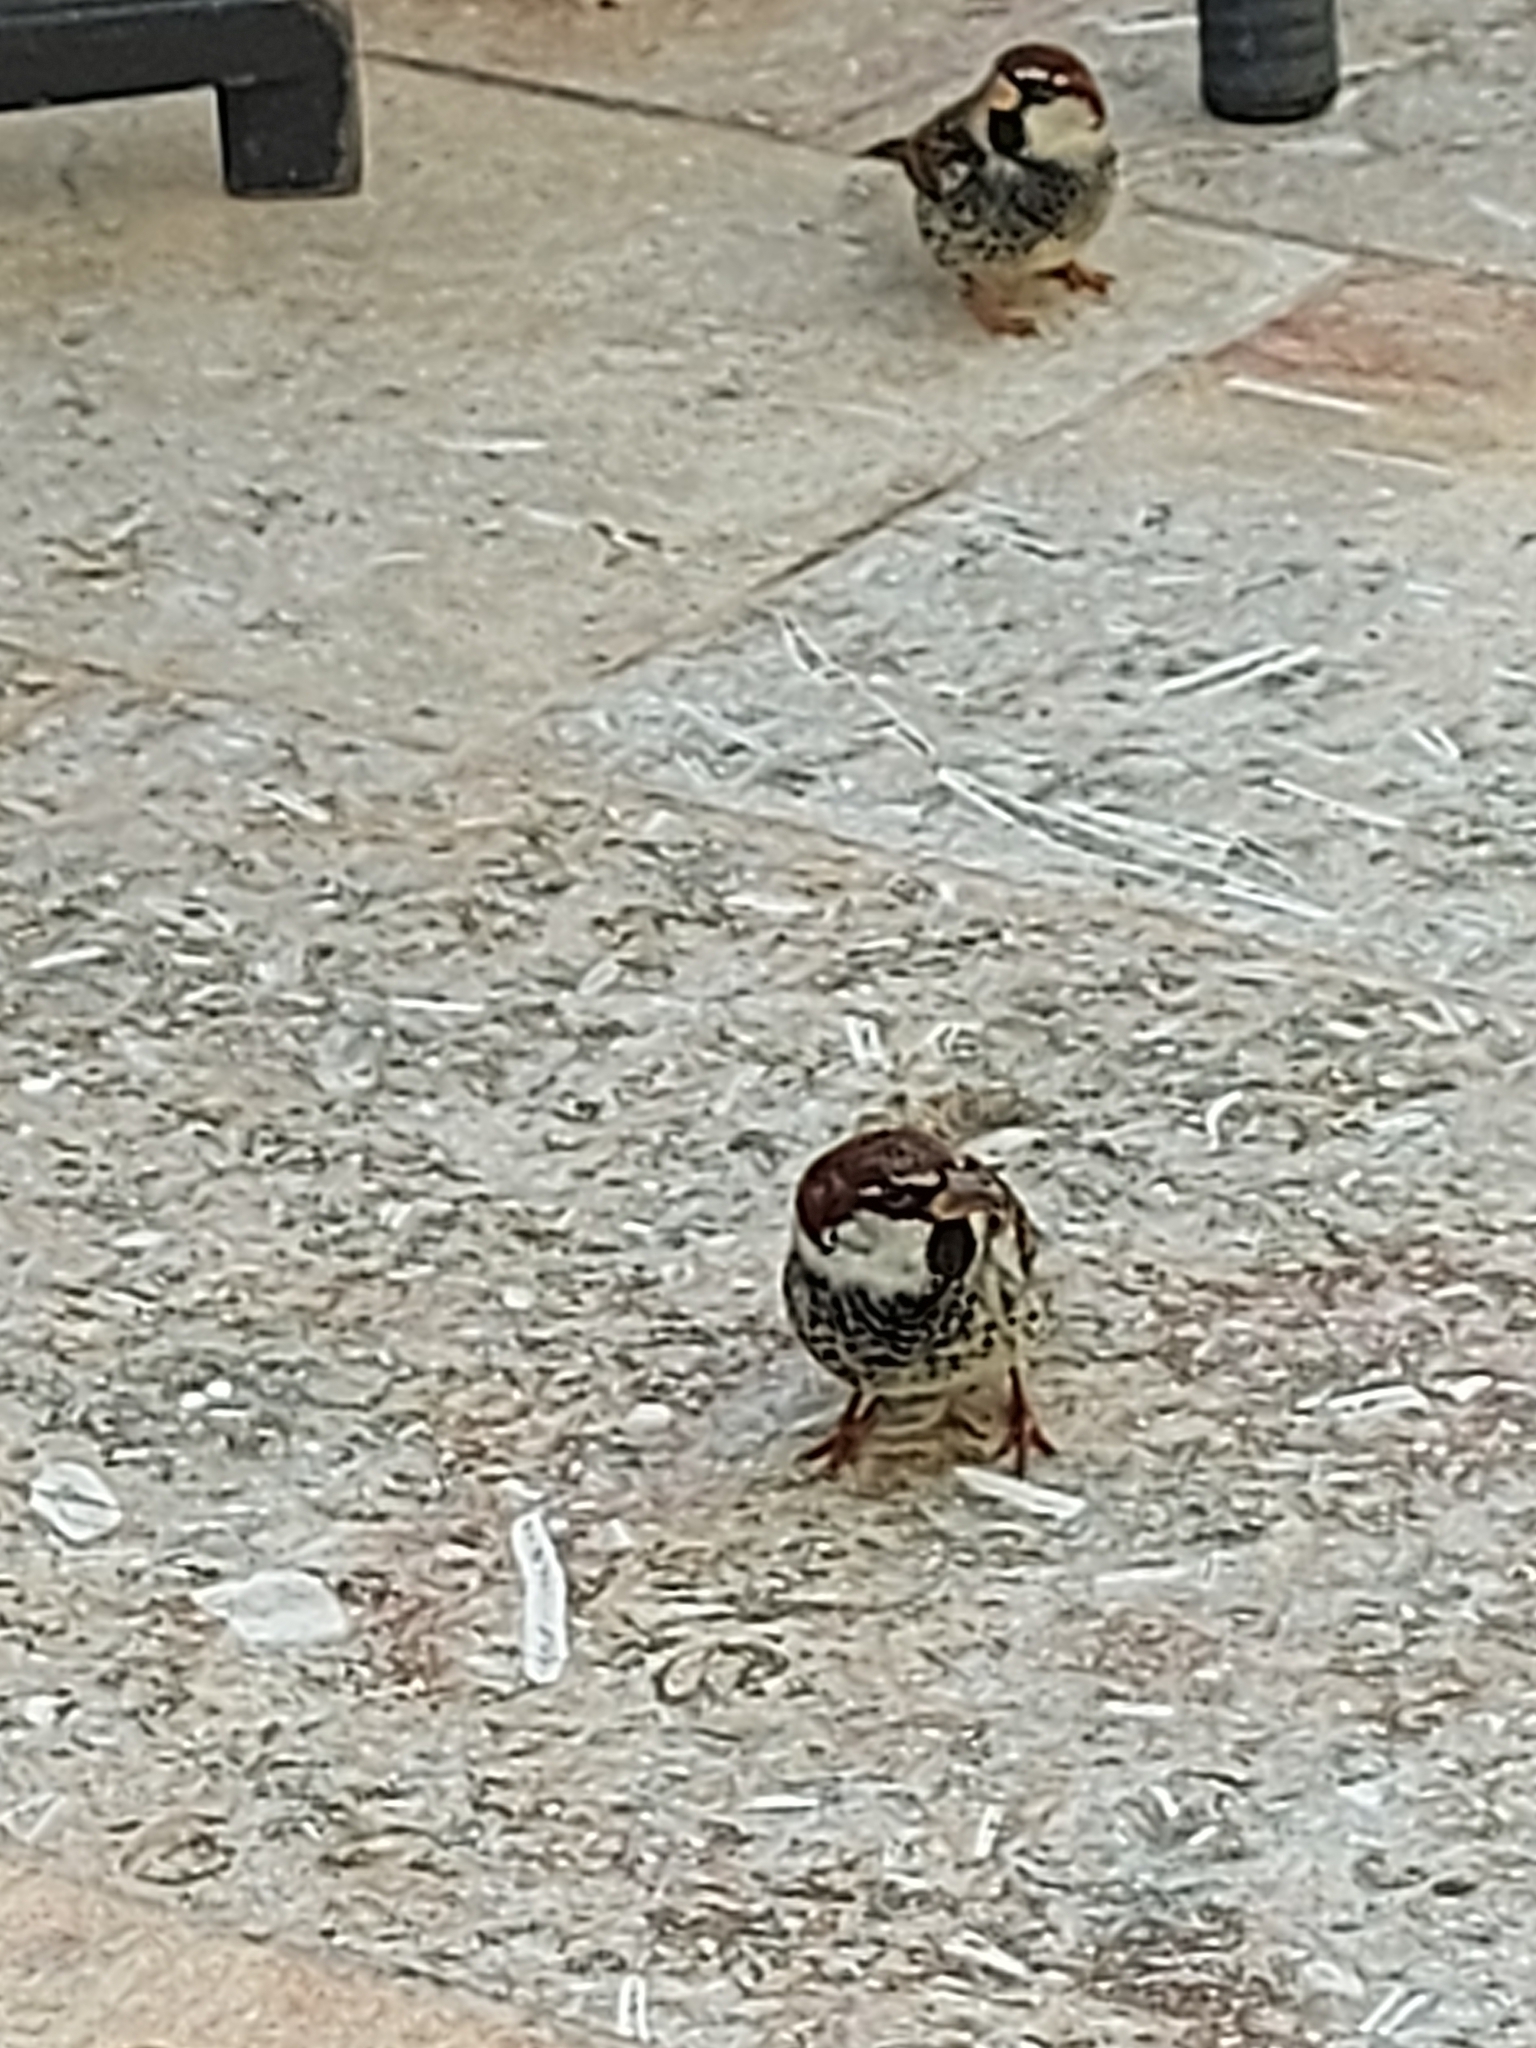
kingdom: Animalia
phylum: Chordata
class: Aves
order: Passeriformes
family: Passeridae
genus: Passer
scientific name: Passer hispaniolensis
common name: Spanish sparrow
